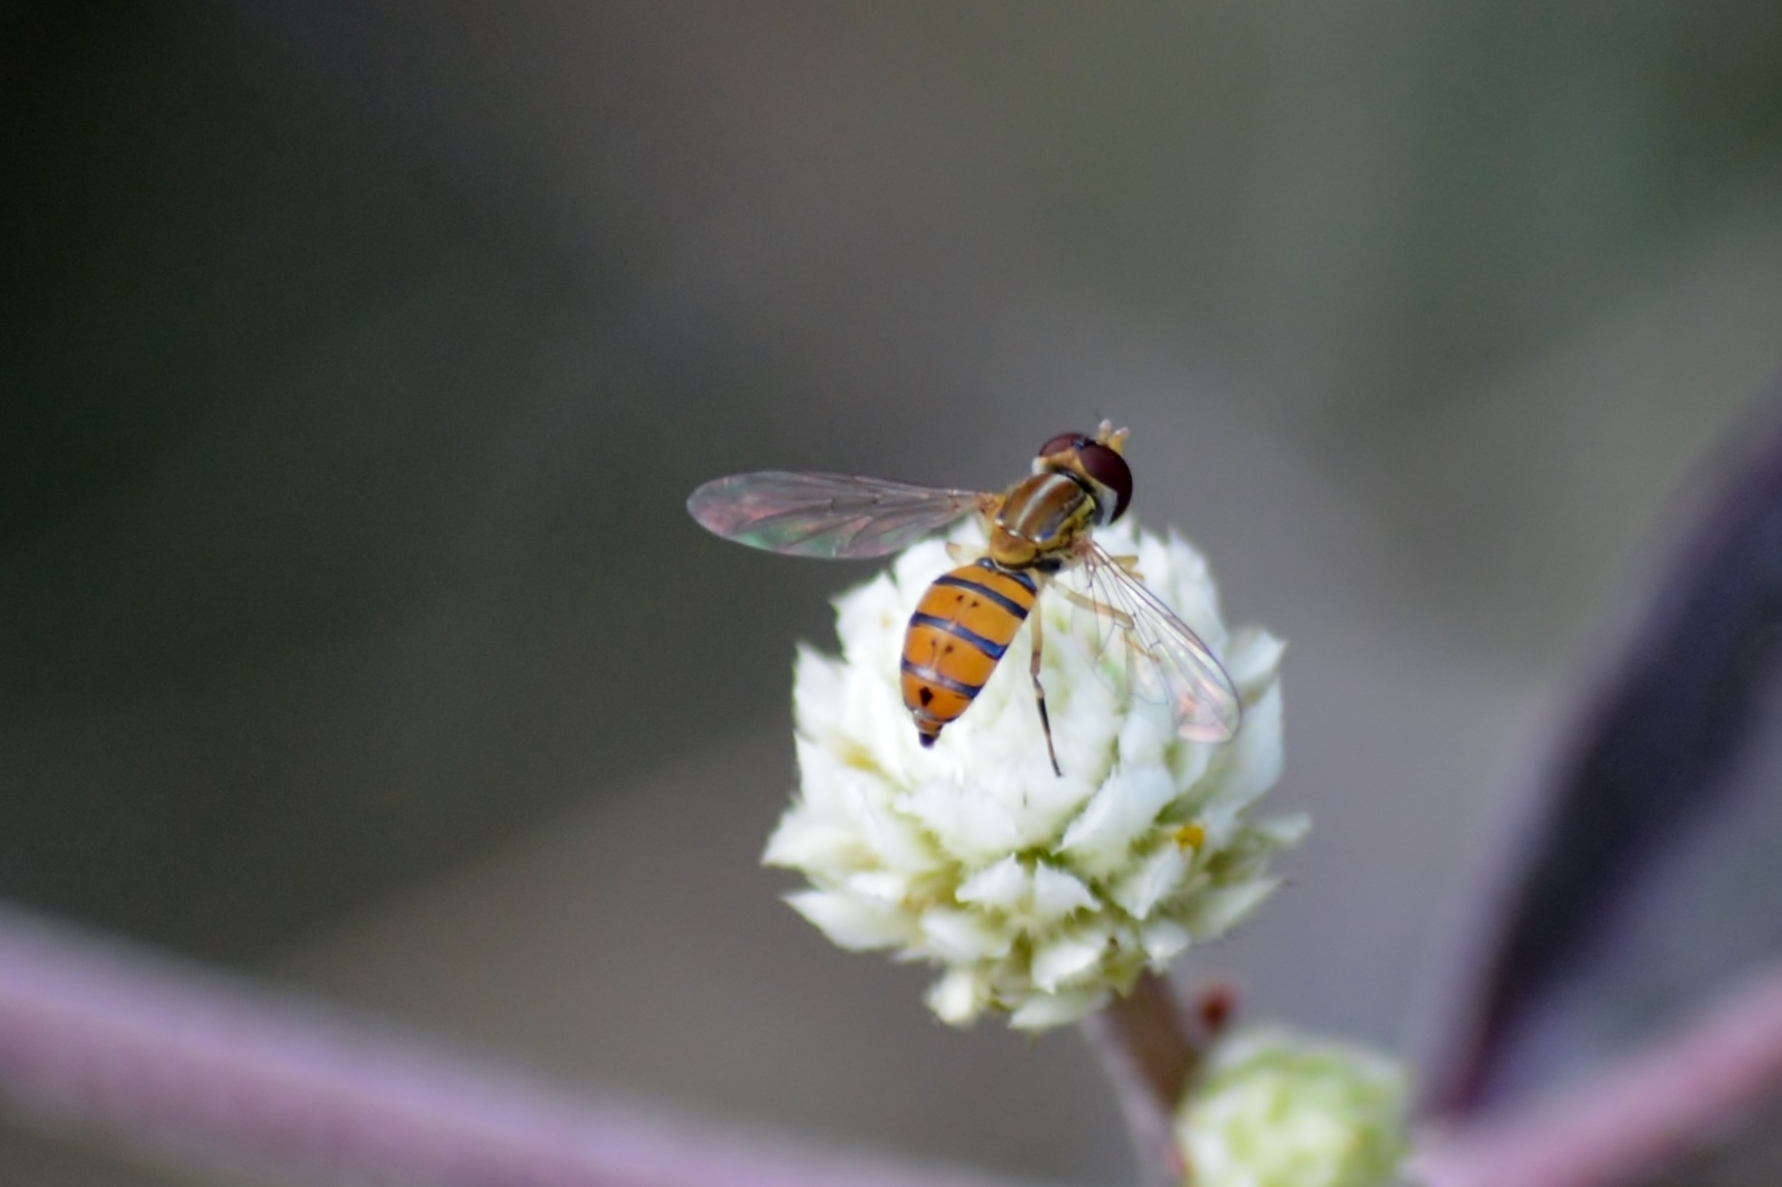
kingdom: Animalia
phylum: Arthropoda
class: Insecta
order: Diptera
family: Syrphidae
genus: Toxomerus
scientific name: Toxomerus
